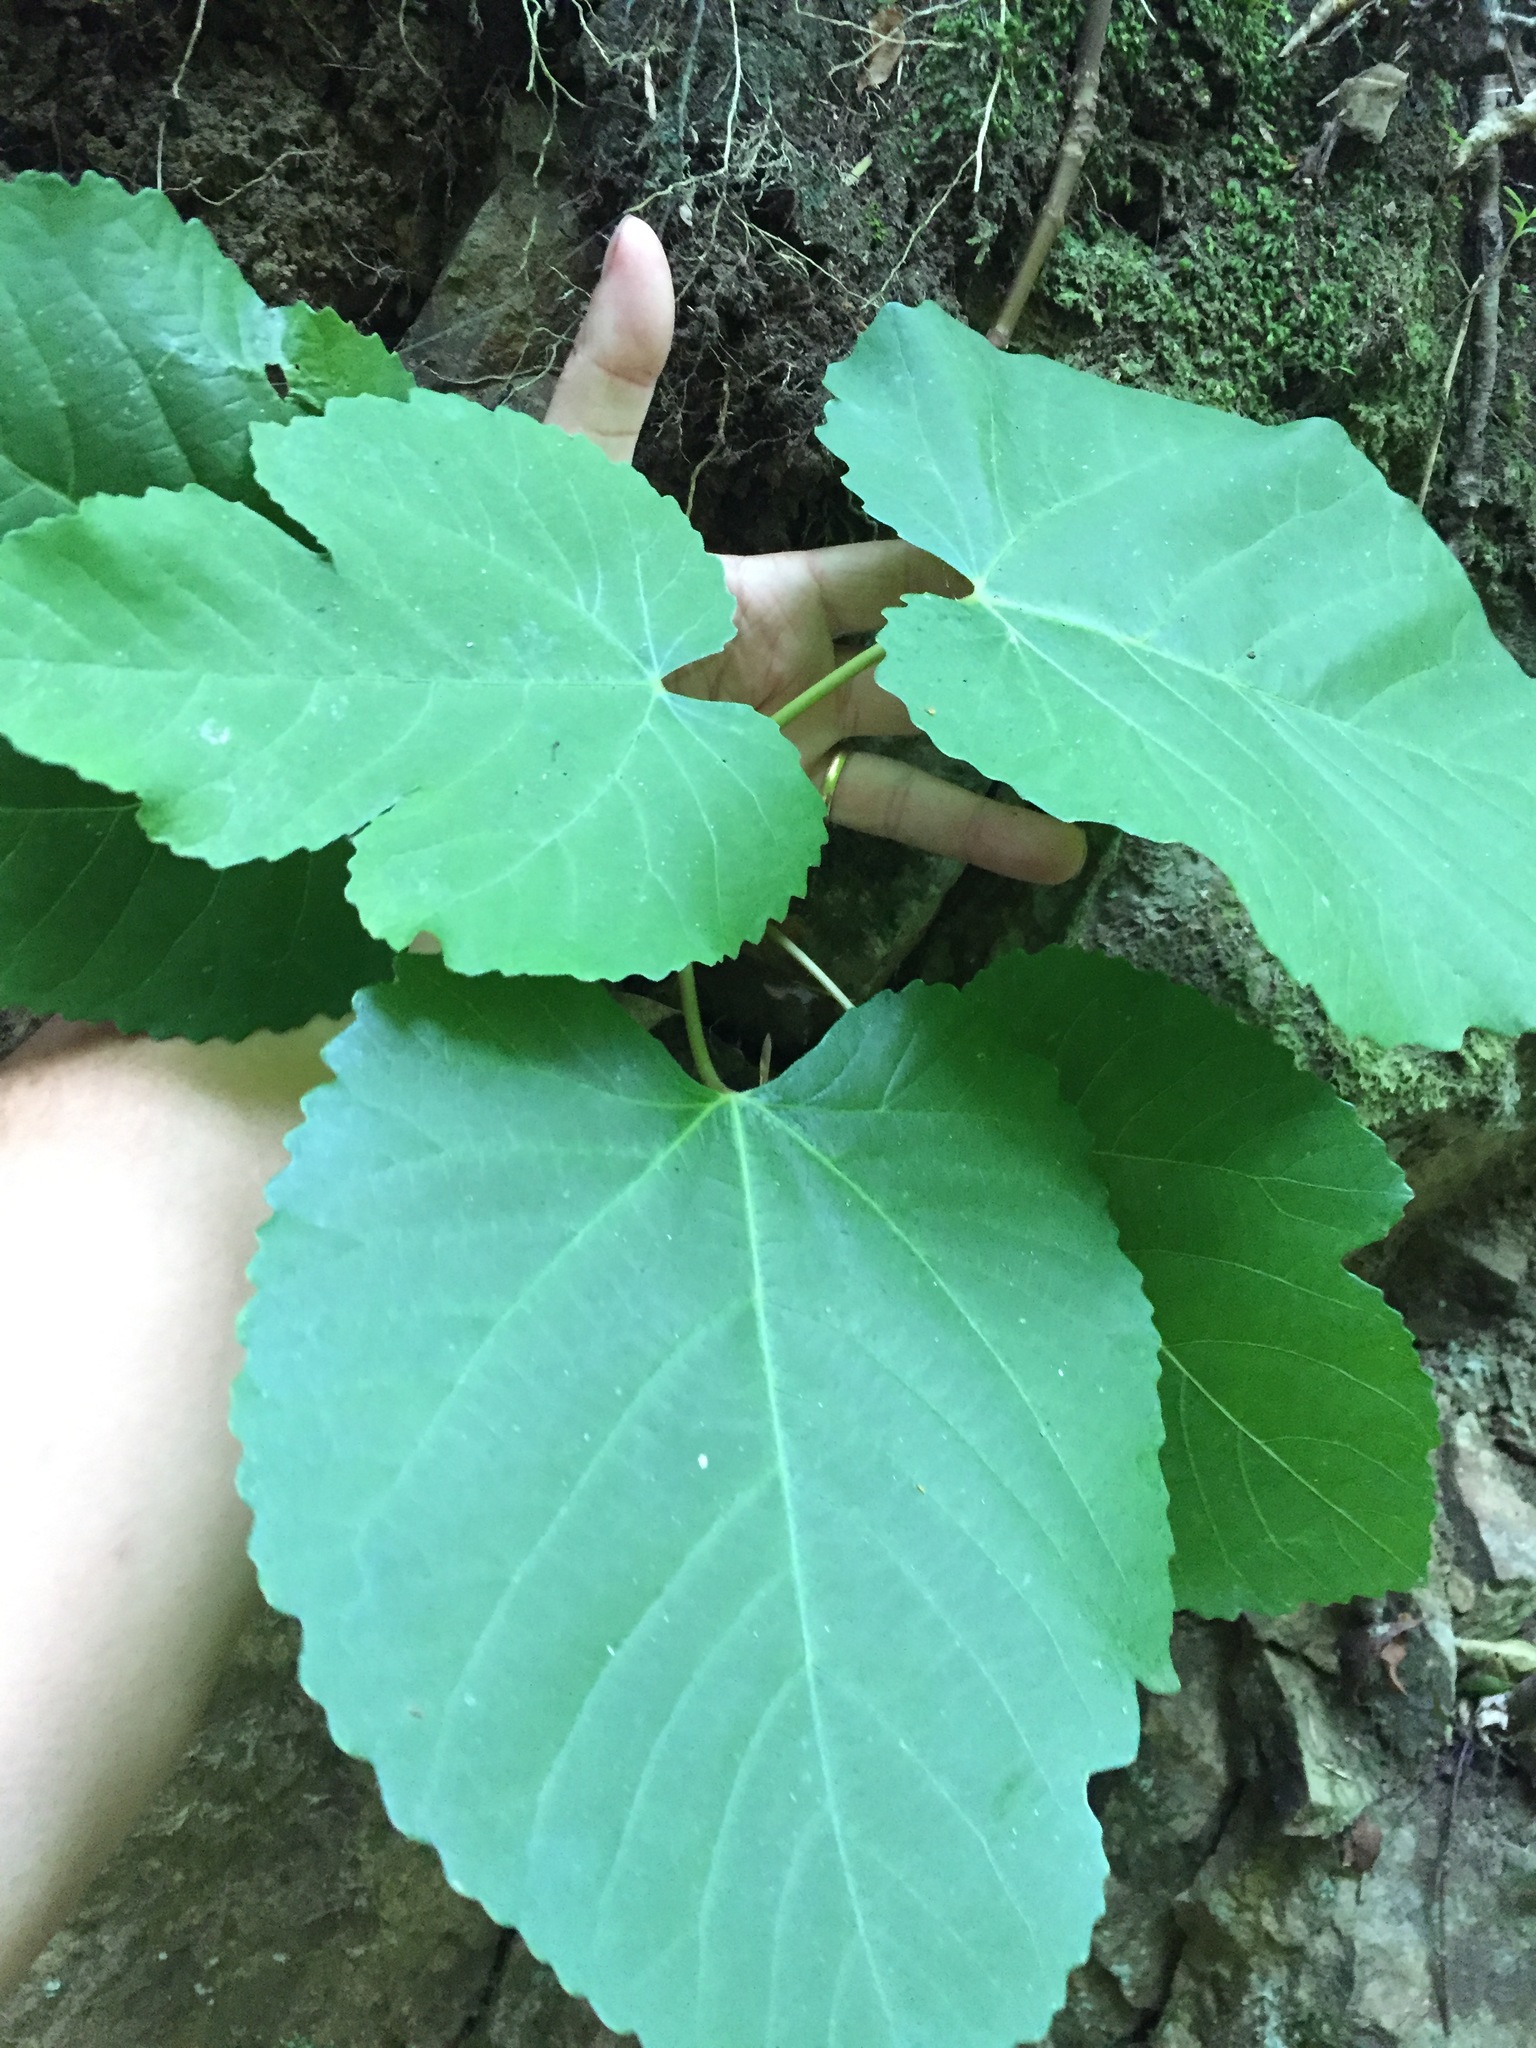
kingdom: Plantae
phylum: Tracheophyta
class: Magnoliopsida
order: Rosales
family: Moraceae
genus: Broussonetia
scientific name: Broussonetia papyrifera
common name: Paper mulberry
